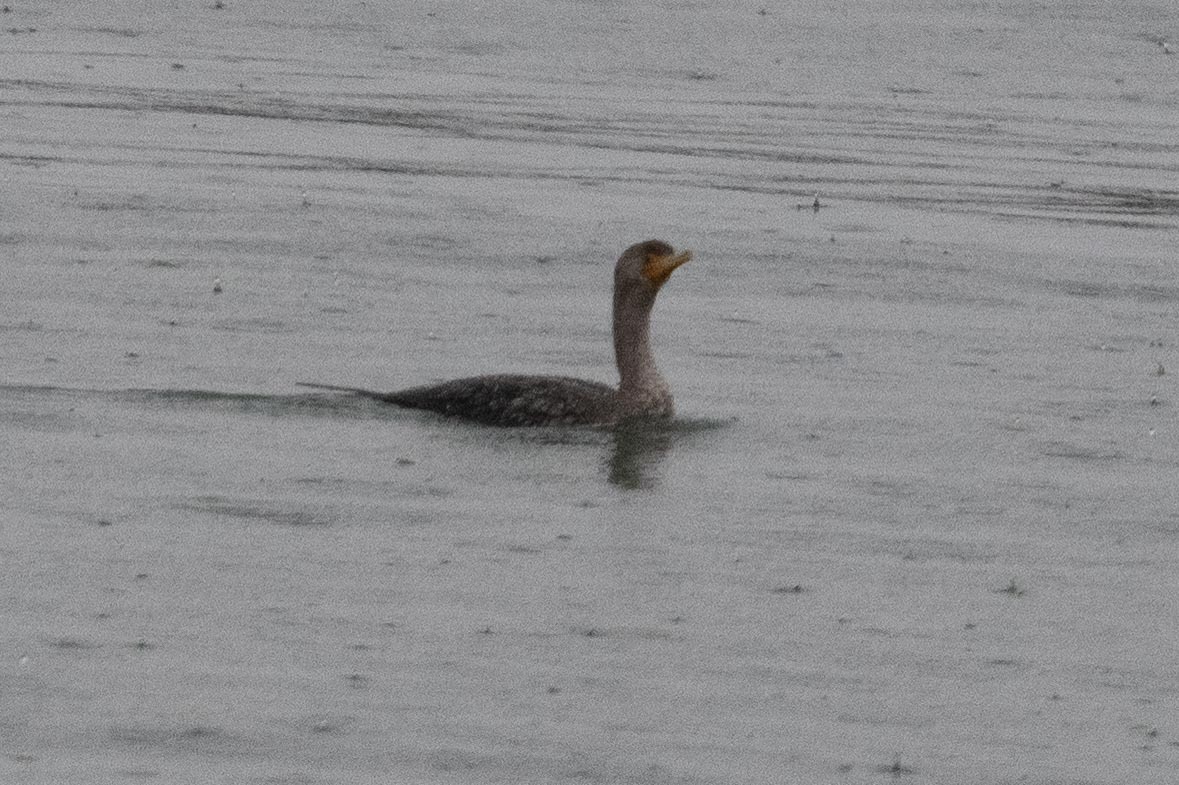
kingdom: Animalia
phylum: Chordata
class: Aves
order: Suliformes
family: Phalacrocoracidae
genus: Phalacrocorax
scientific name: Phalacrocorax auritus
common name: Double-crested cormorant
